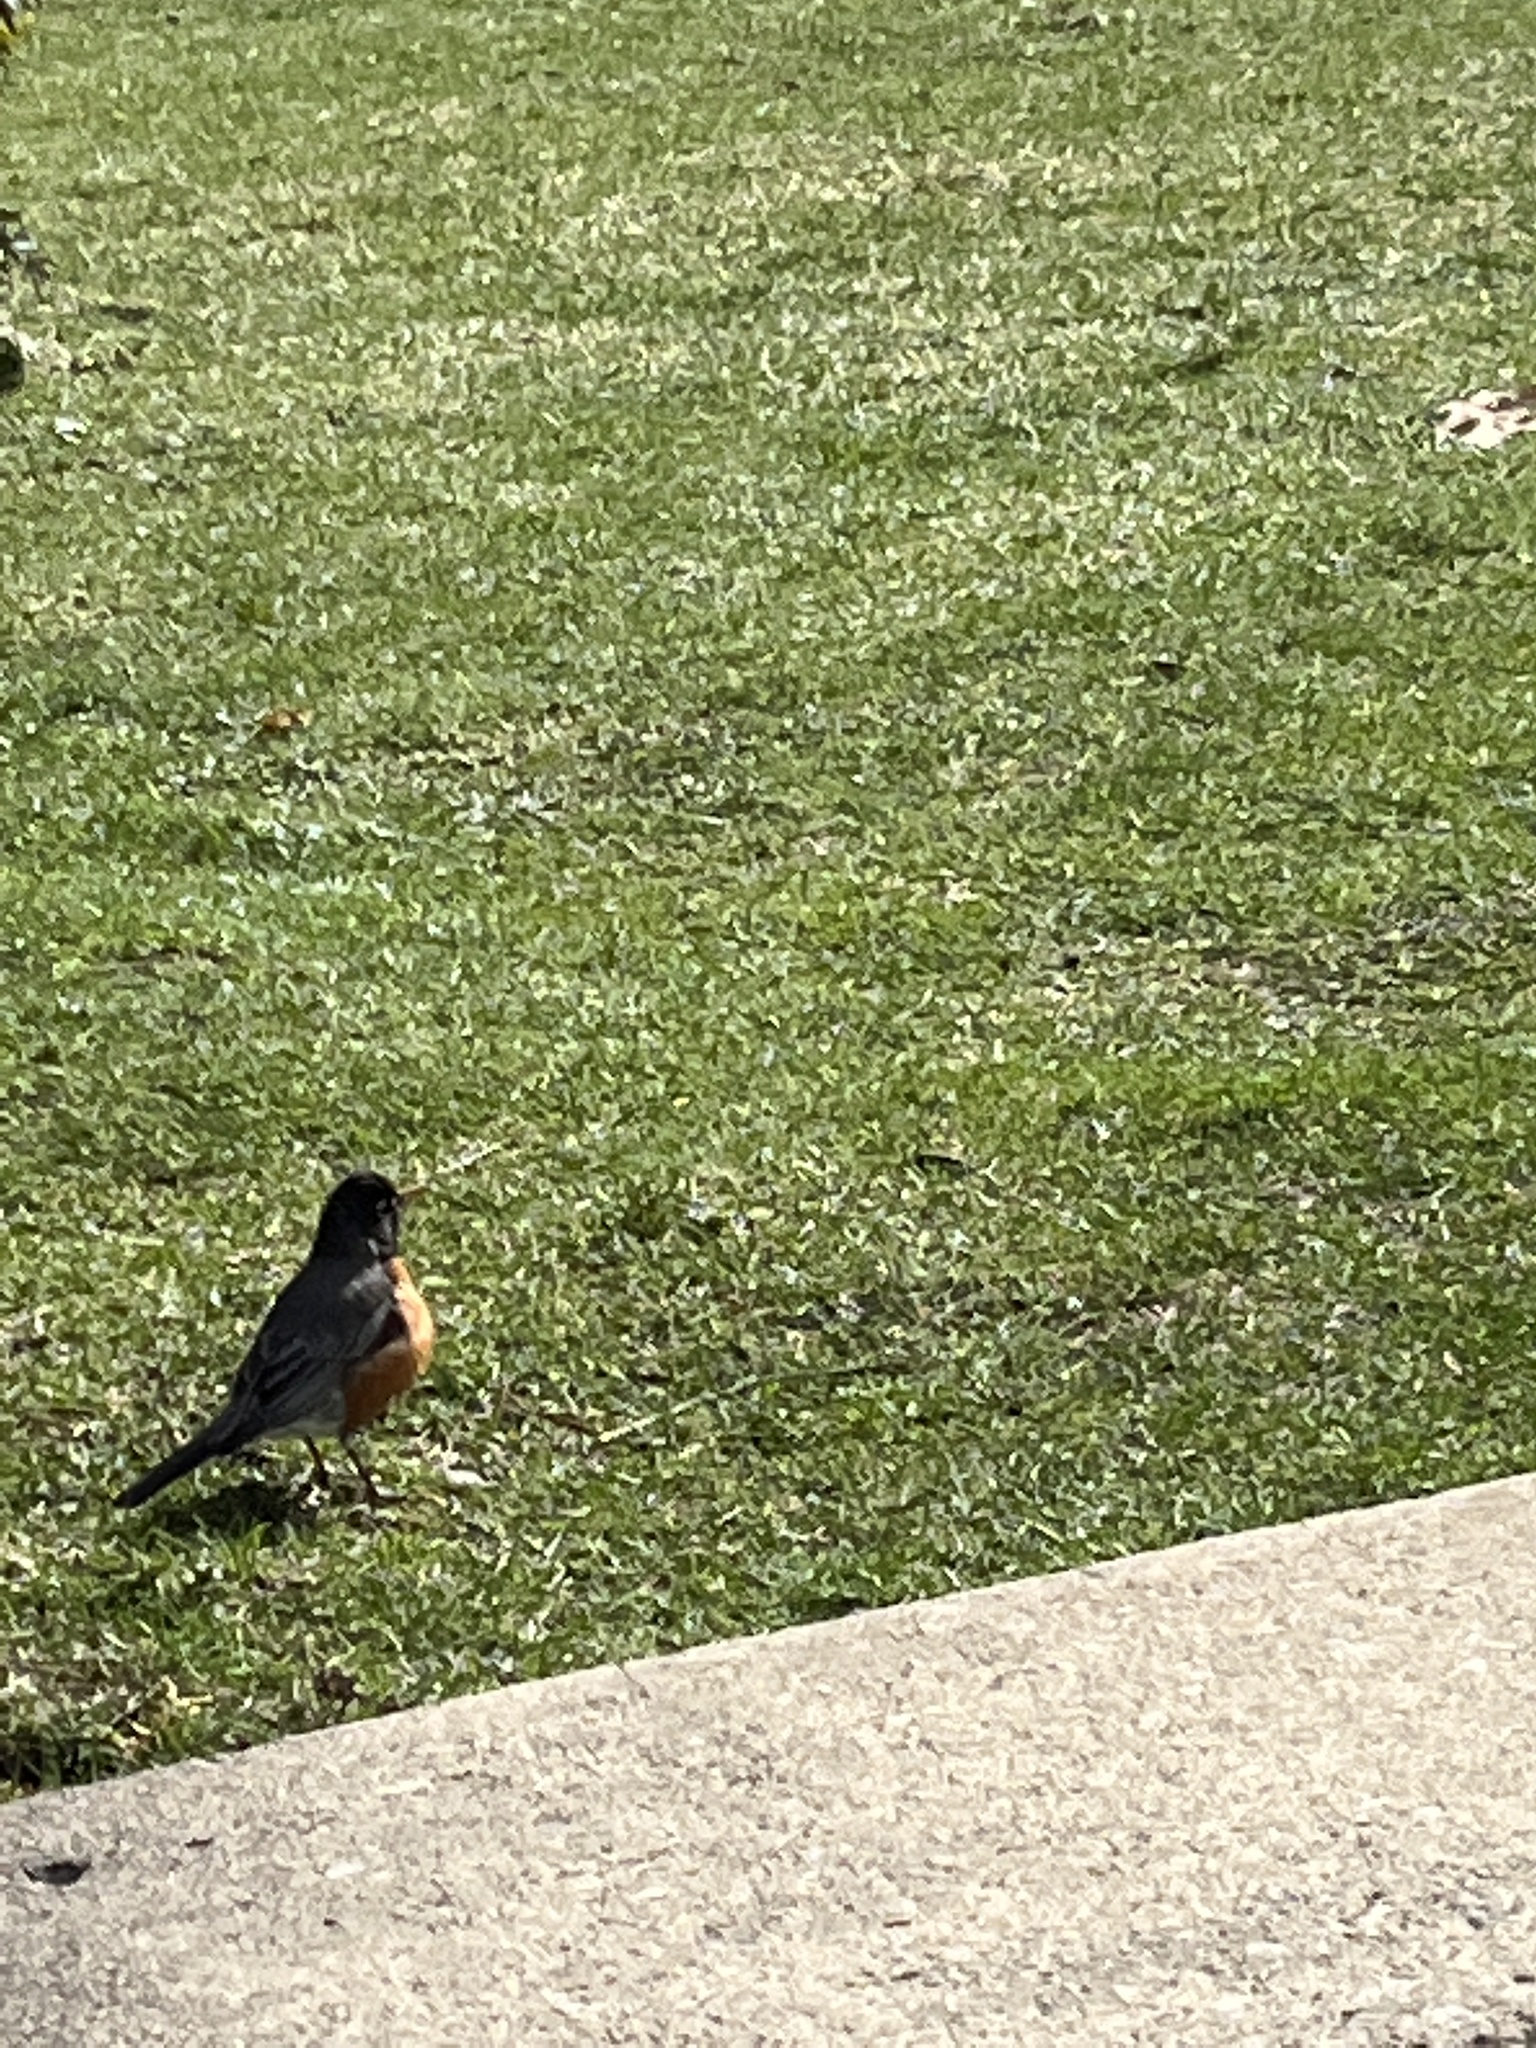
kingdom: Animalia
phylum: Chordata
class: Aves
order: Passeriformes
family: Turdidae
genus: Turdus
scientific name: Turdus migratorius
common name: American robin
